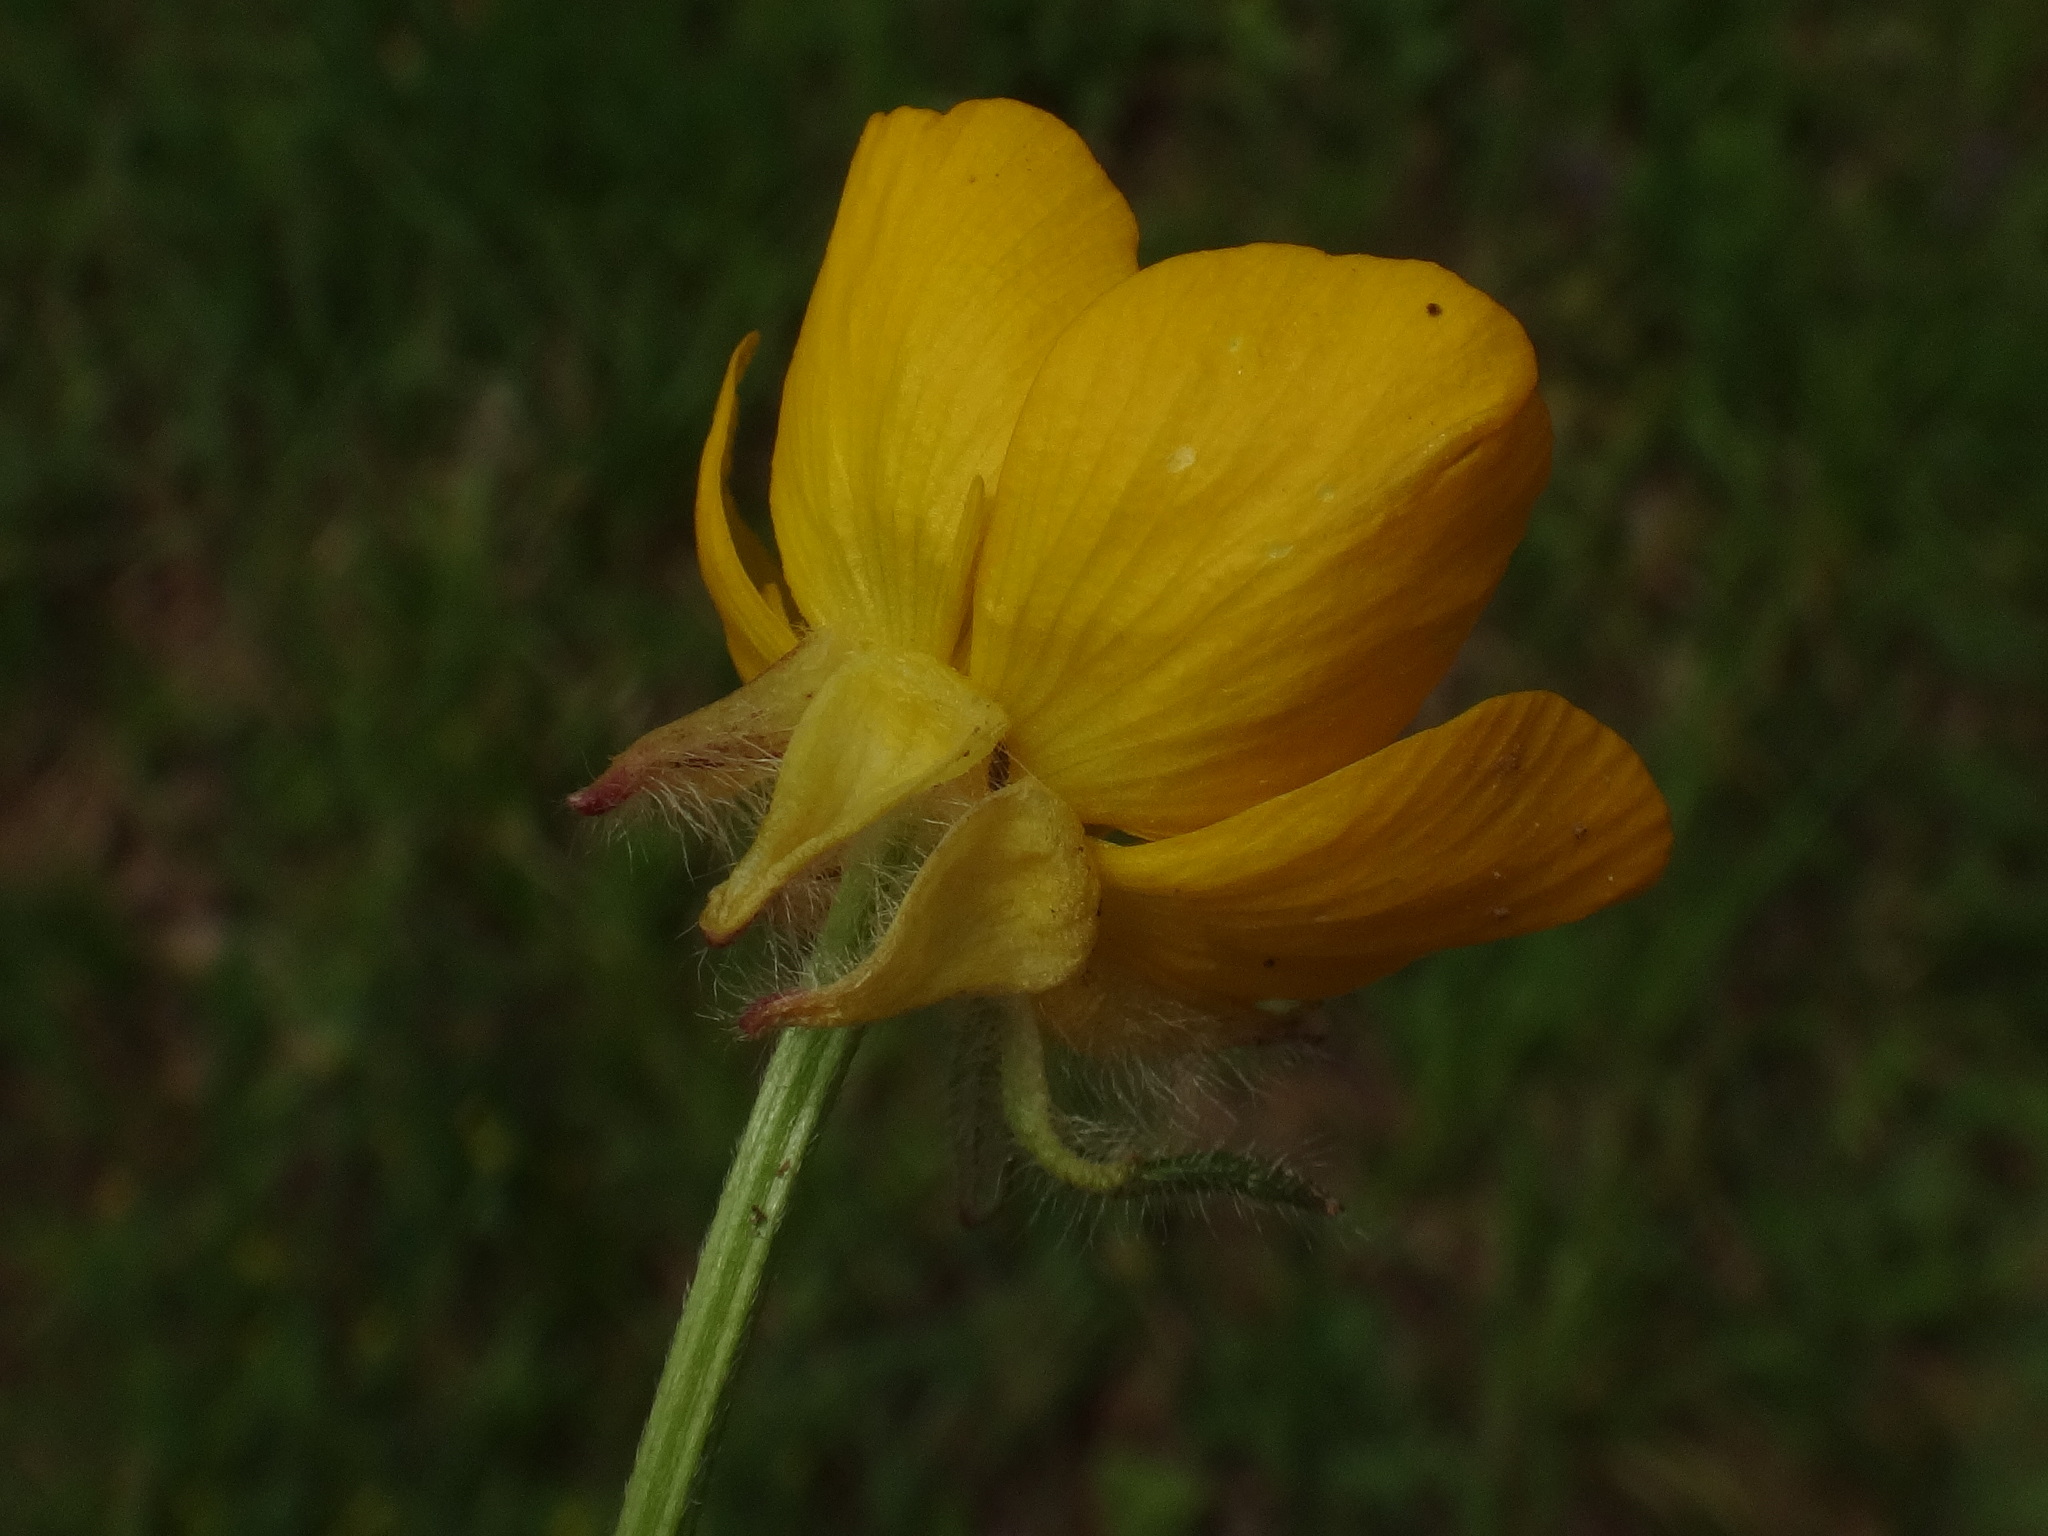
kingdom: Plantae
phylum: Tracheophyta
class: Magnoliopsida
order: Ranunculales
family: Ranunculaceae
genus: Ranunculus
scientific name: Ranunculus bulbosus
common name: Bulbous buttercup
